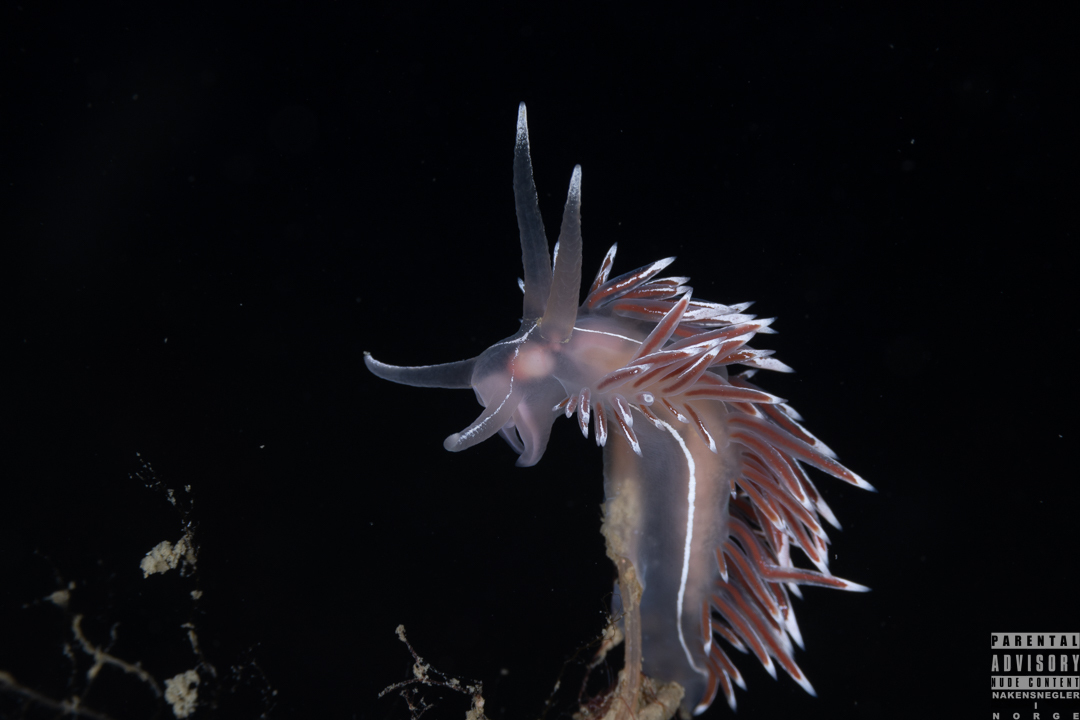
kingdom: Animalia
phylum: Mollusca
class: Gastropoda
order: Nudibranchia
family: Coryphellidae
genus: Coryphella
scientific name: Coryphella lineata
